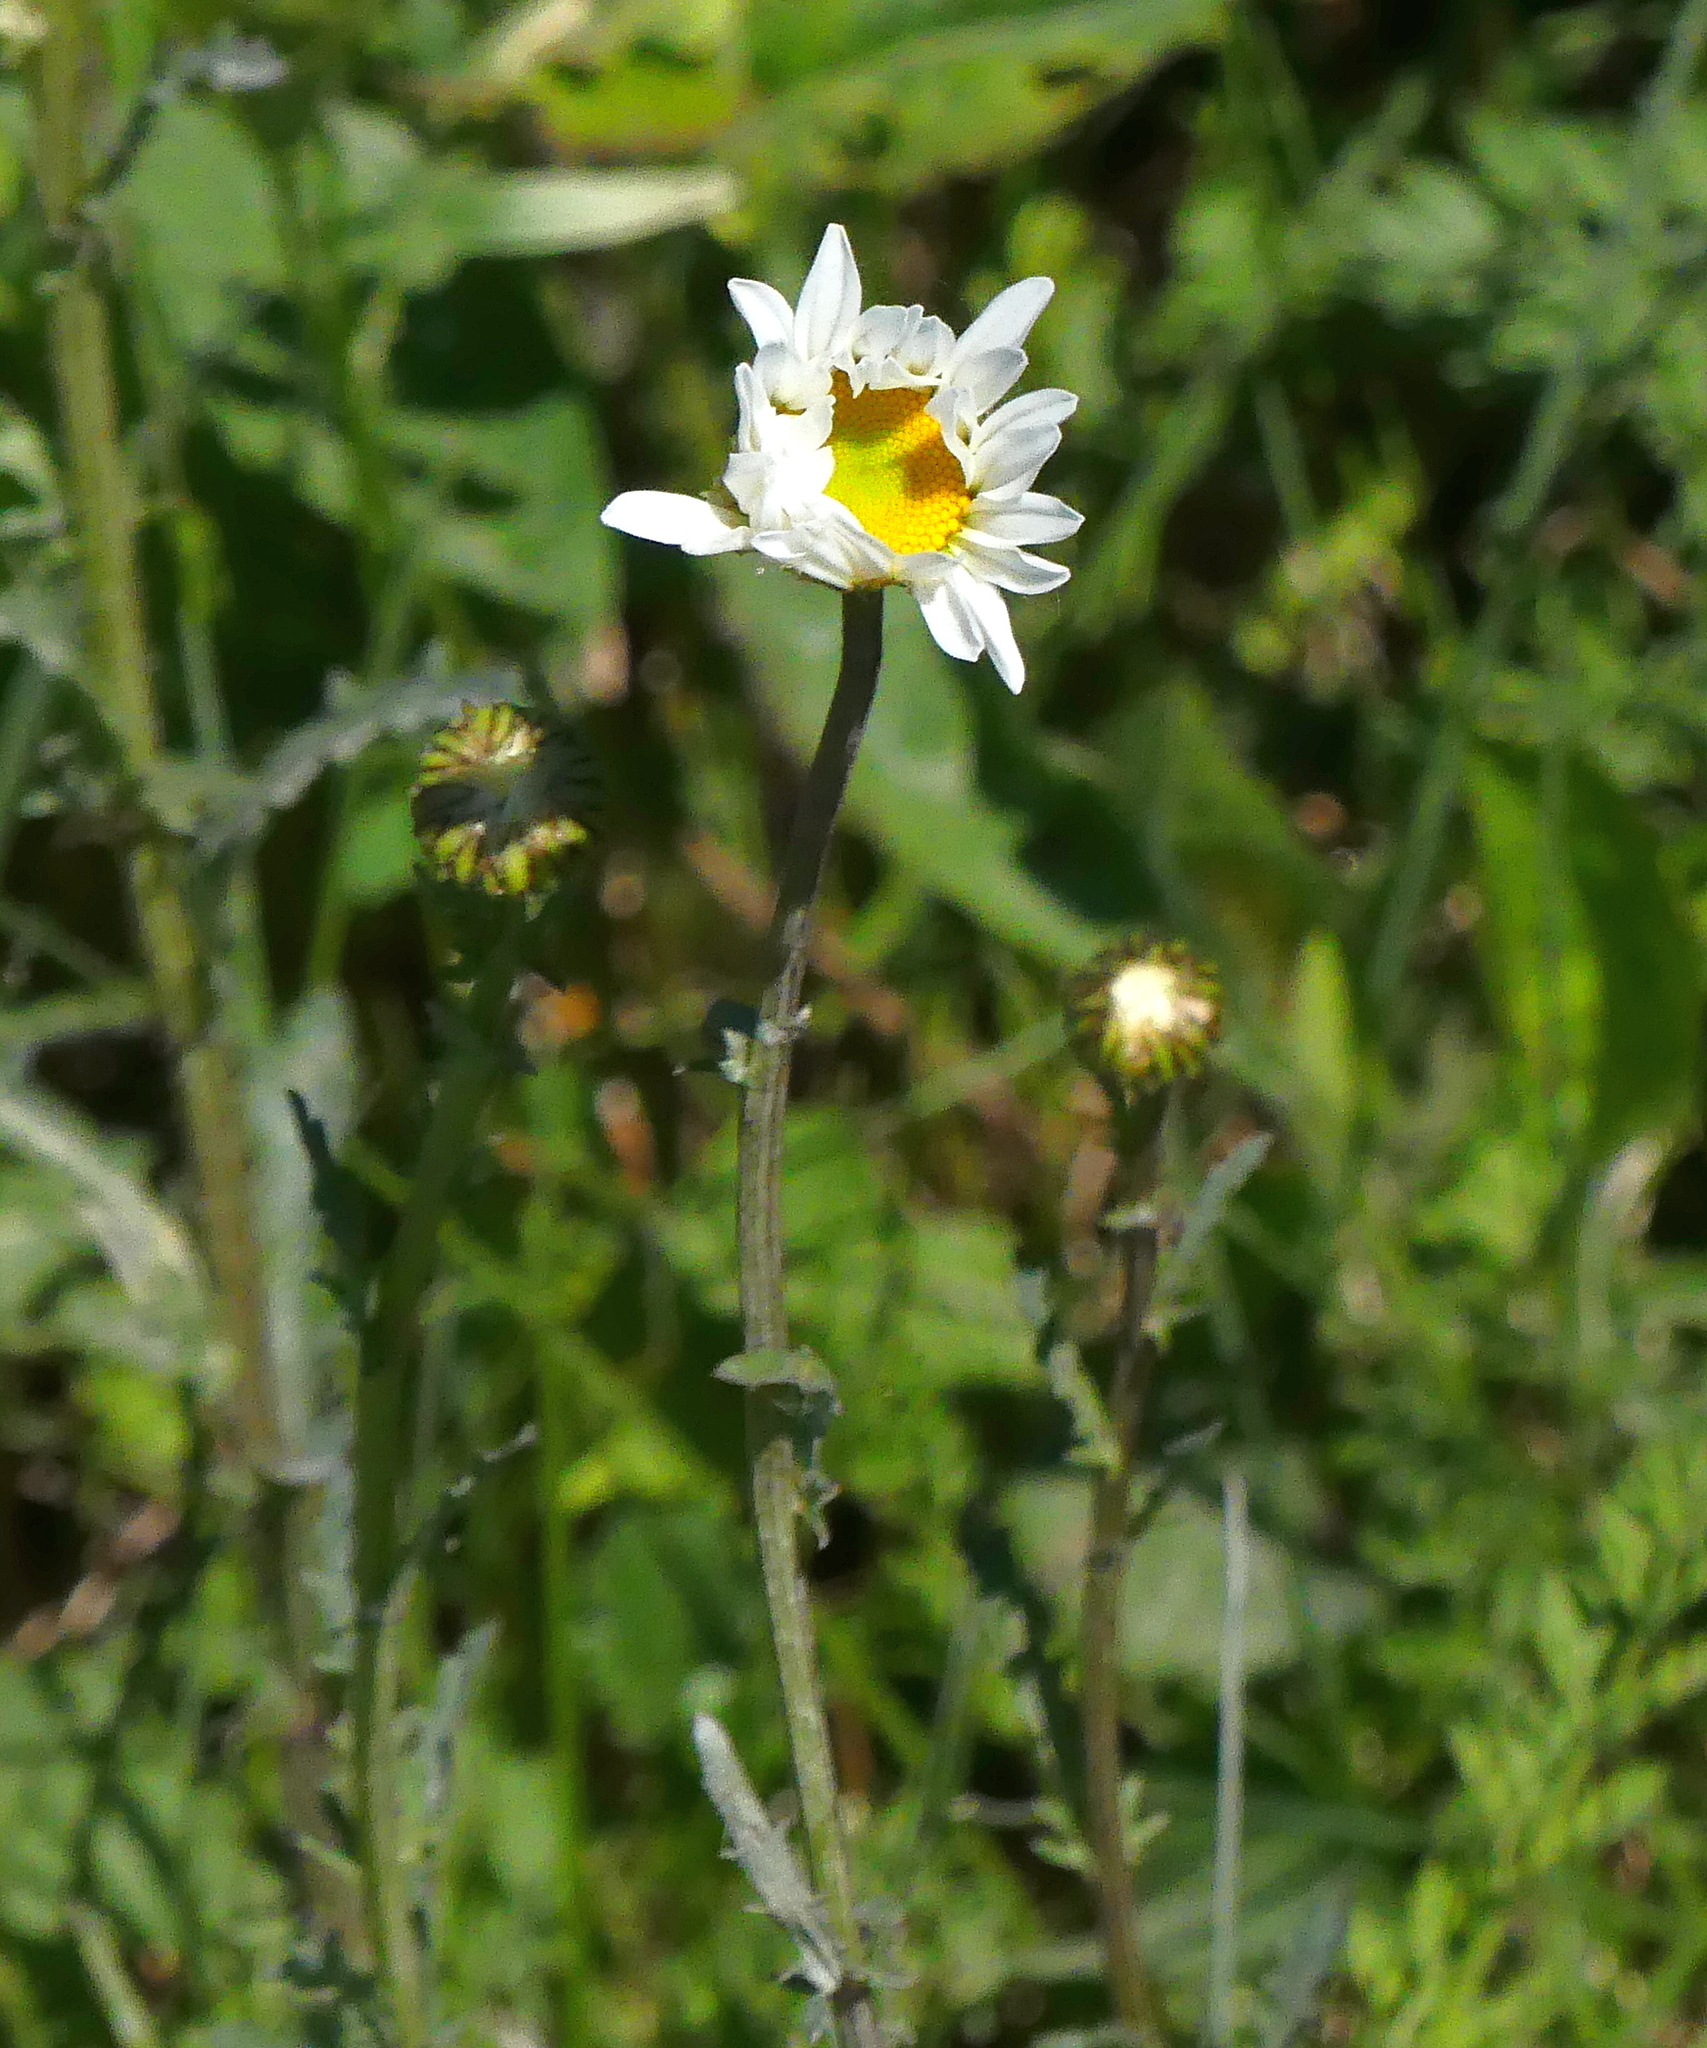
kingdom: Plantae
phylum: Tracheophyta
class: Magnoliopsida
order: Asterales
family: Asteraceae
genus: Leucanthemum
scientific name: Leucanthemum vulgare
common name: Oxeye daisy
